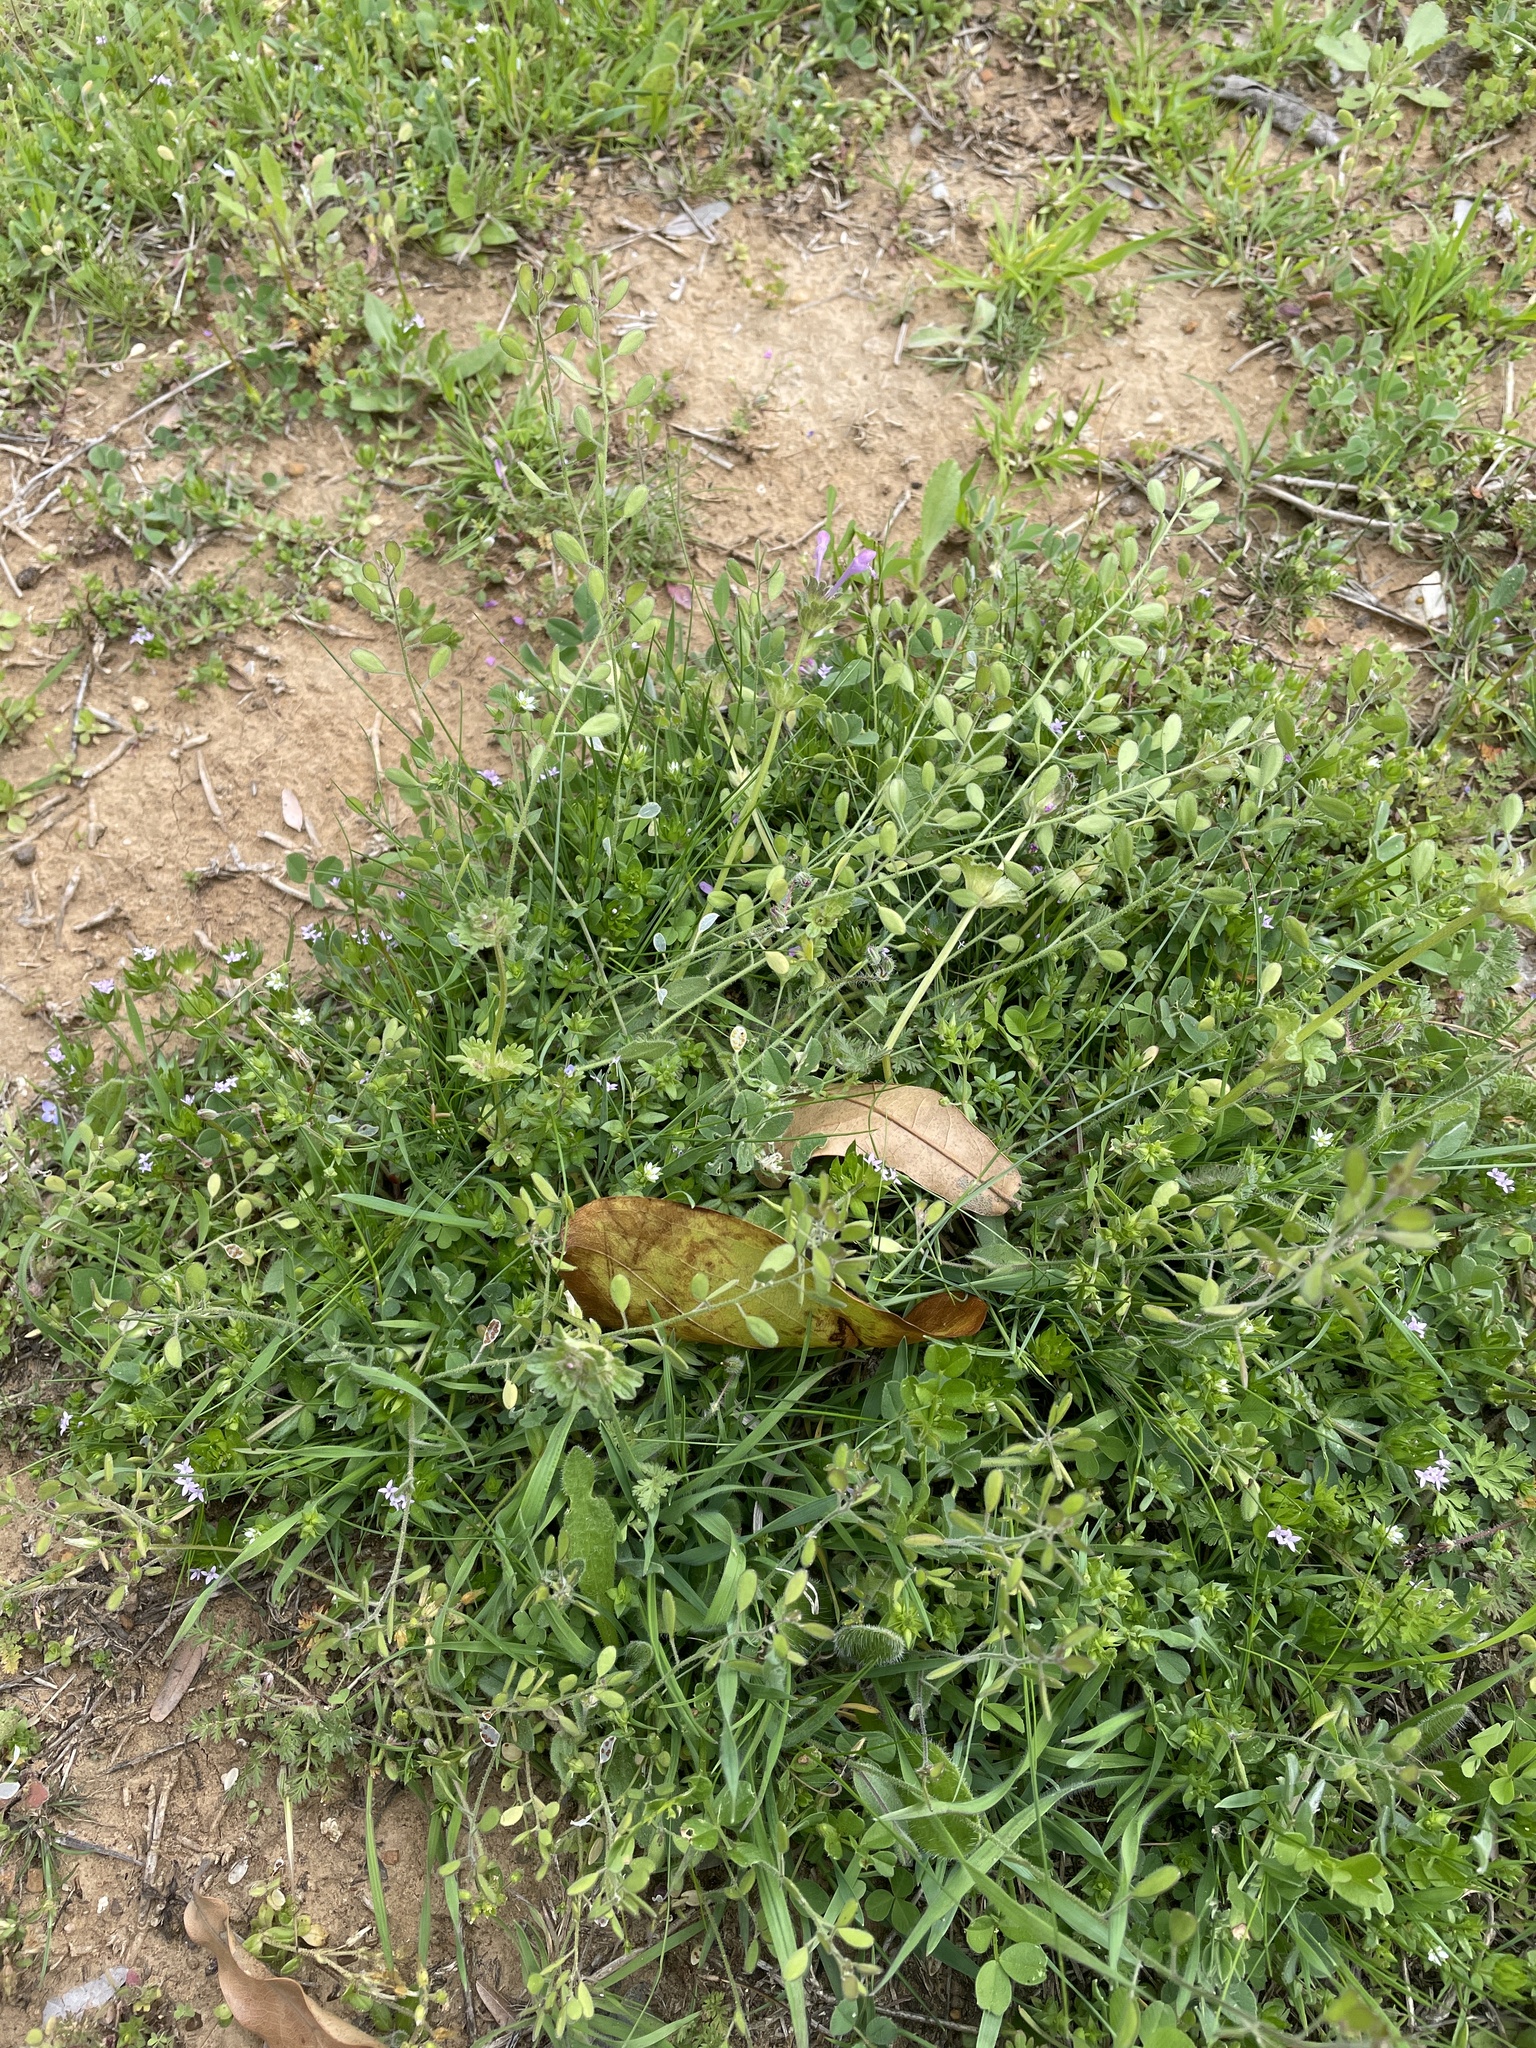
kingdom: Plantae
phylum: Tracheophyta
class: Magnoliopsida
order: Brassicales
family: Brassicaceae
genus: Tomostima
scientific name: Tomostima platycarpa
